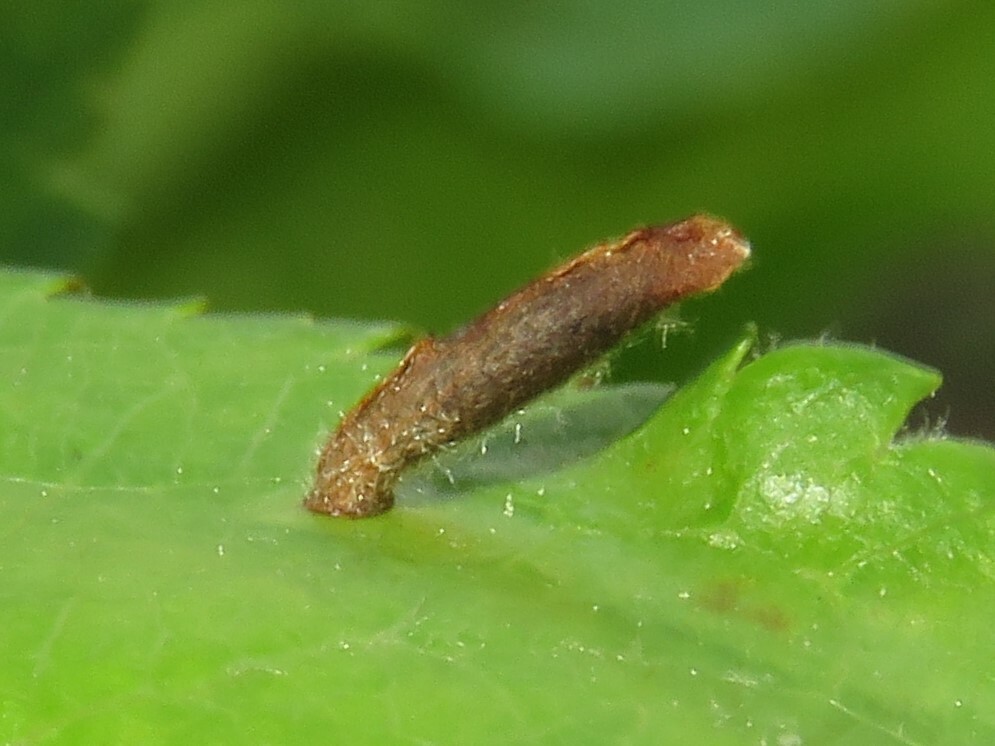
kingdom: Animalia
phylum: Arthropoda
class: Insecta
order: Lepidoptera
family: Coleophoridae
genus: Coleophora
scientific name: Coleophora spinella
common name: Apple & plum case-bearer
